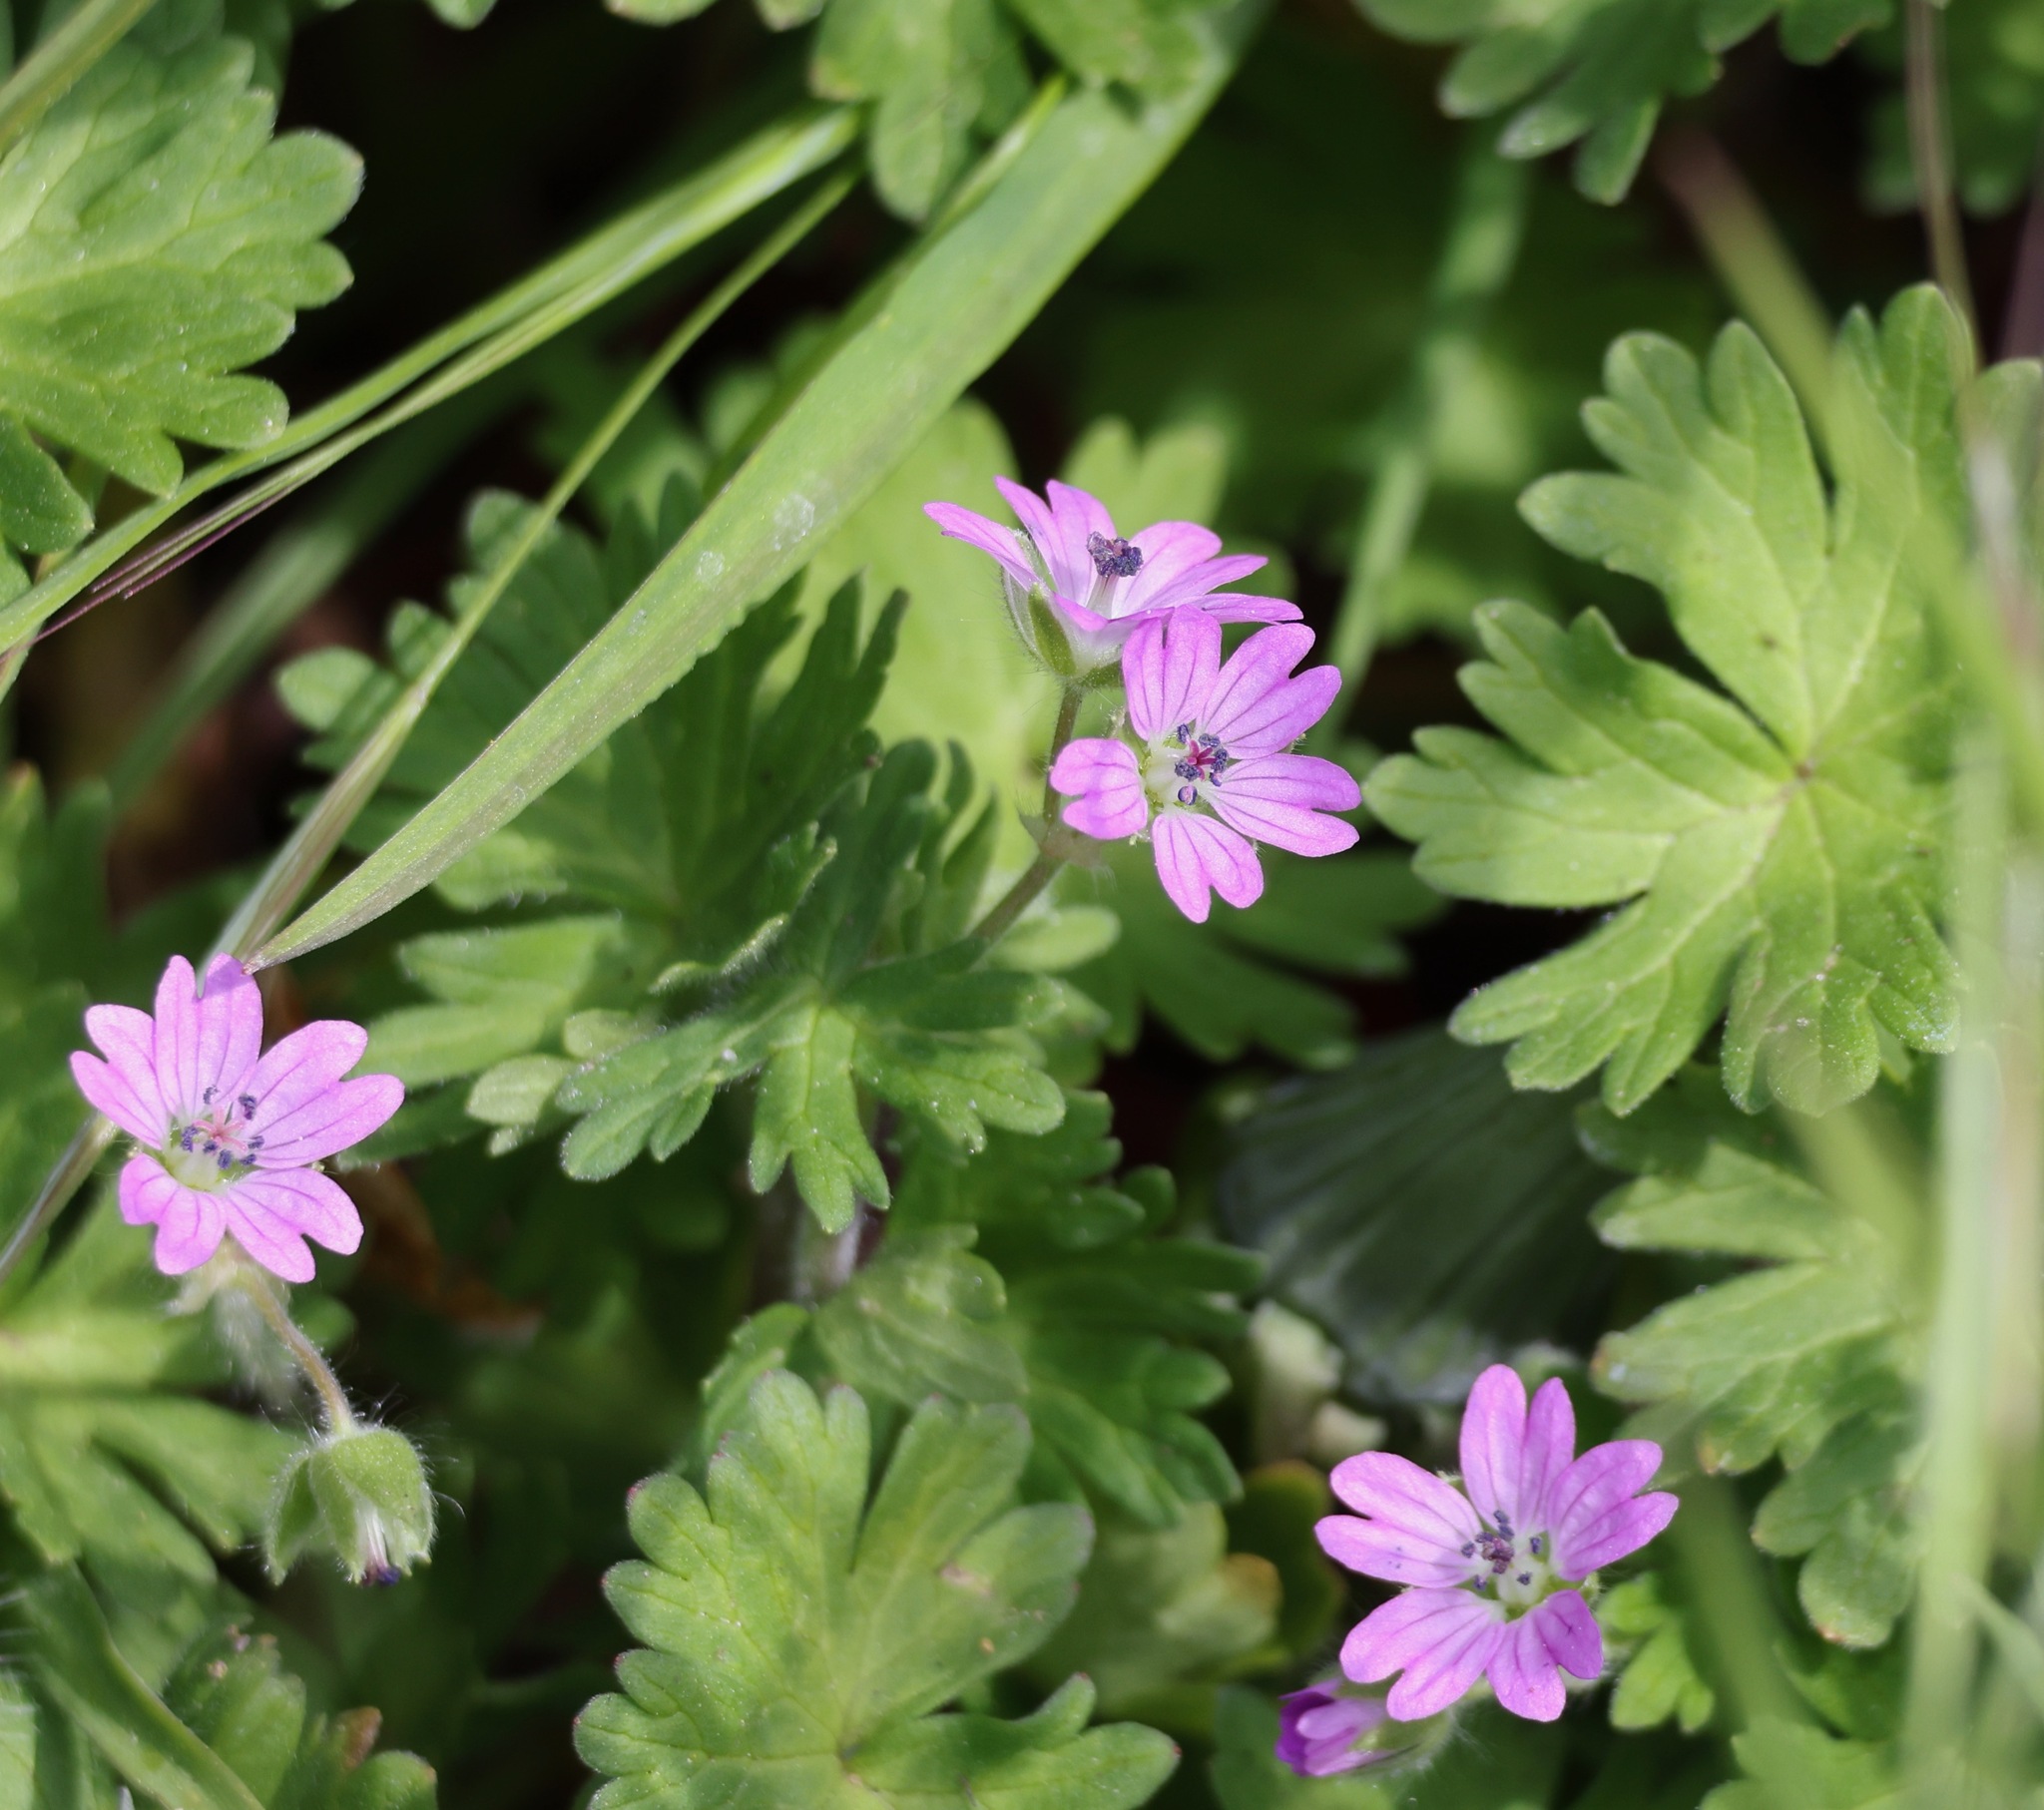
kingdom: Plantae
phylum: Tracheophyta
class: Magnoliopsida
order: Geraniales
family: Geraniaceae
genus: Geranium
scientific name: Geranium molle
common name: Dove's-foot crane's-bill
